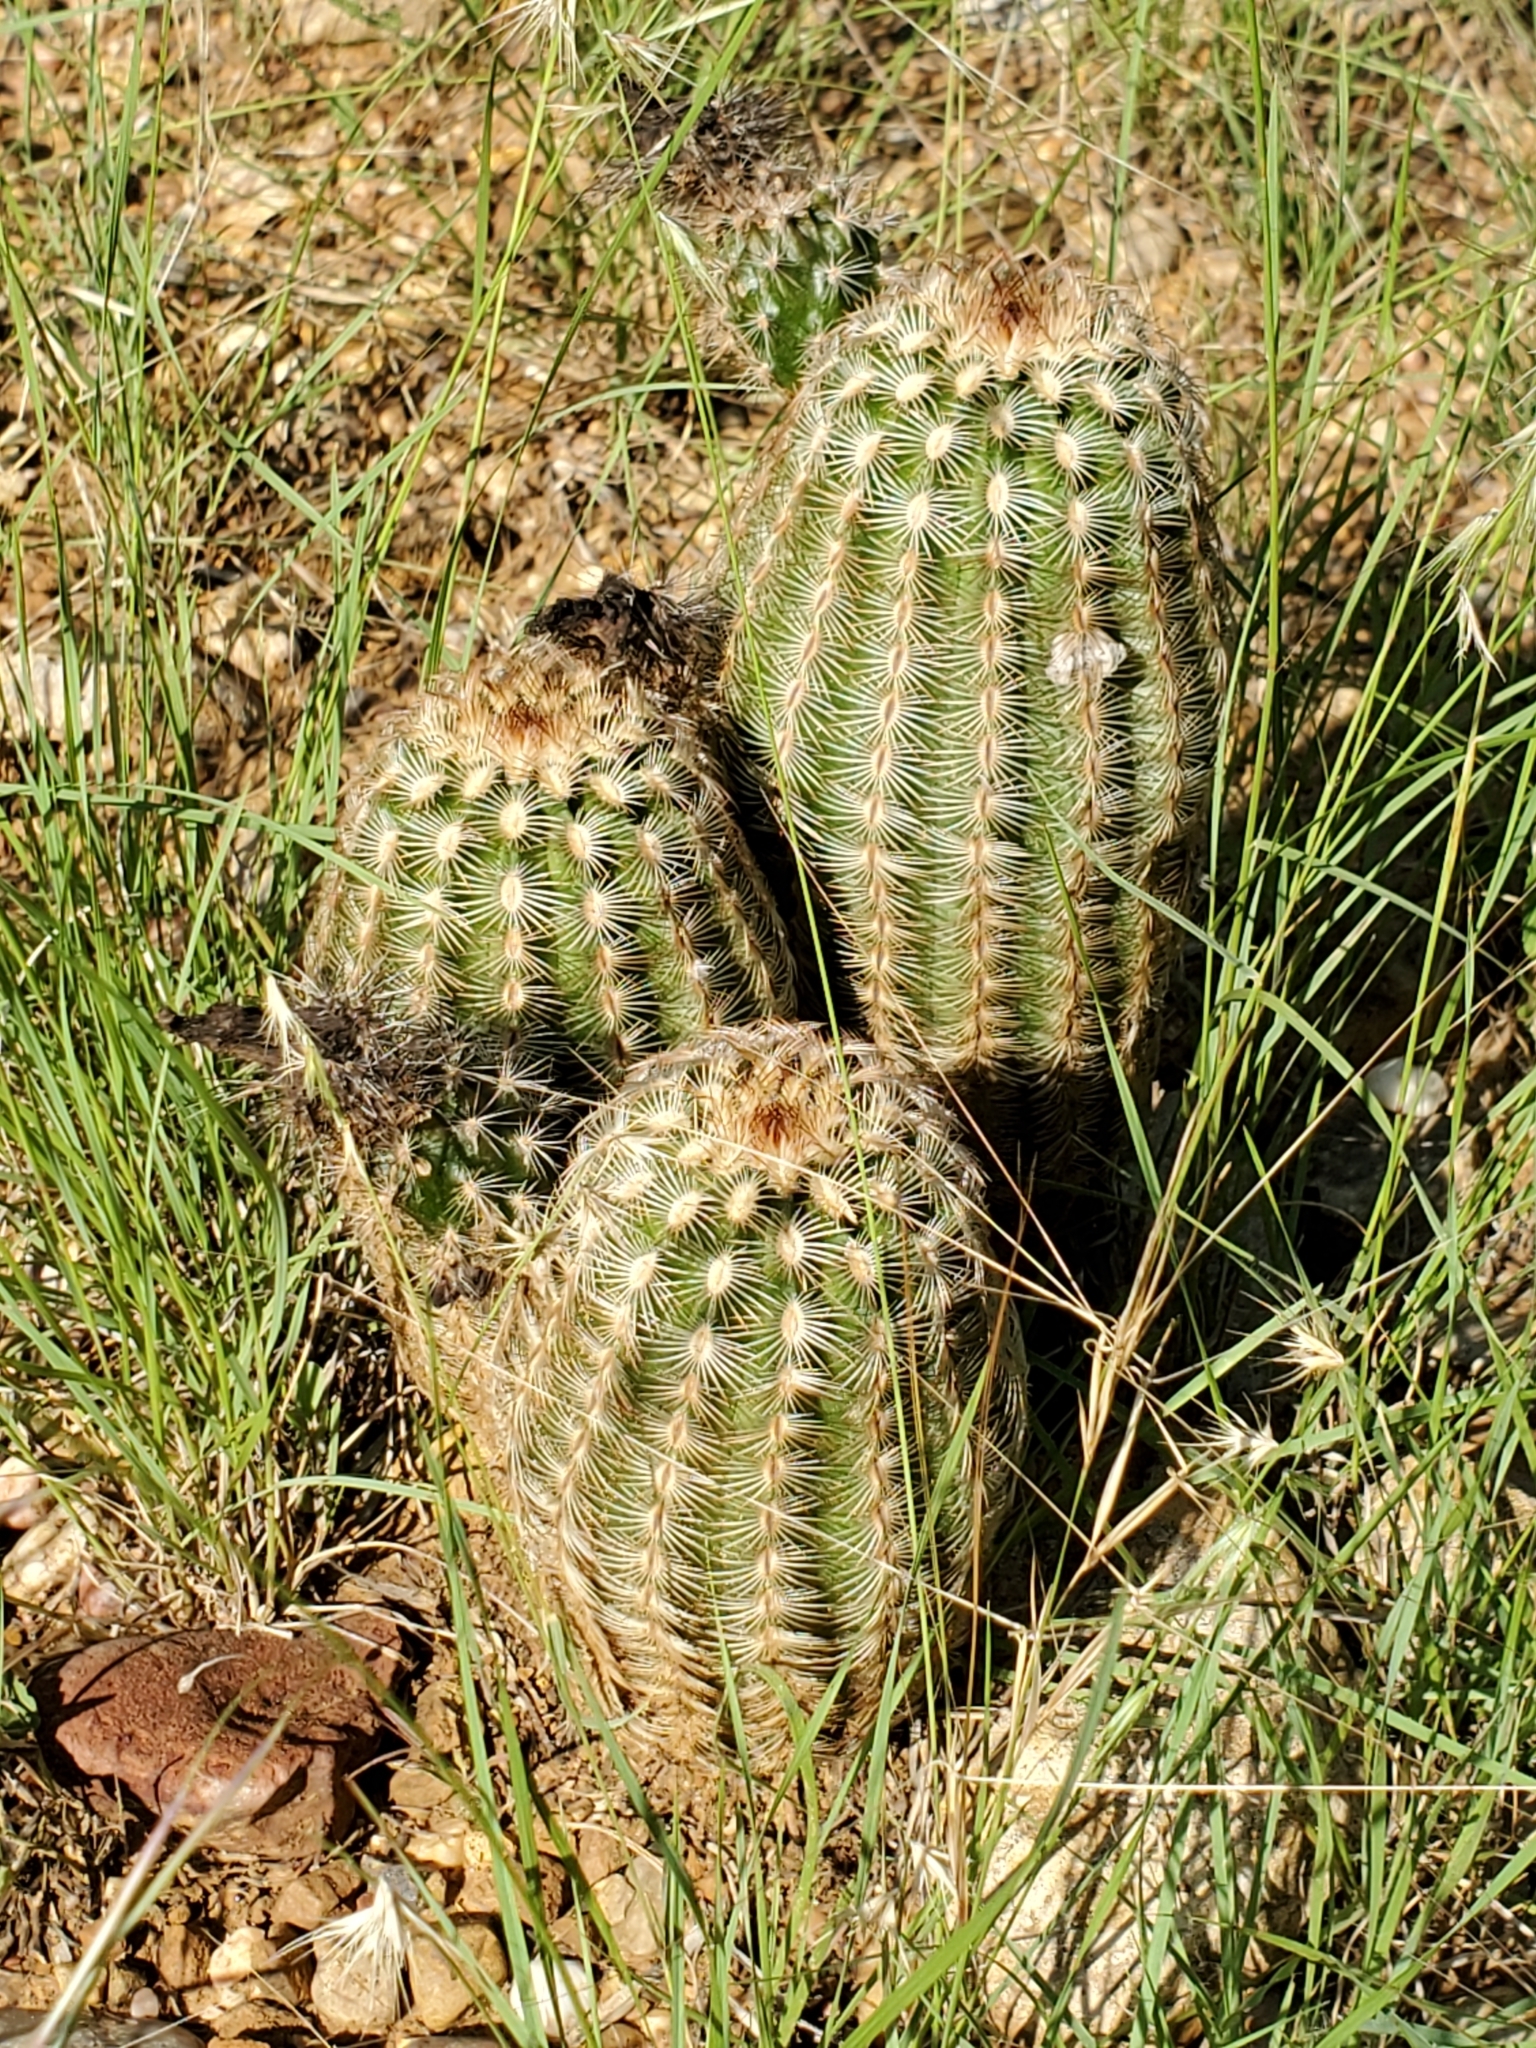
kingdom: Plantae
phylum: Tracheophyta
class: Magnoliopsida
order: Caryophyllales
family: Cactaceae
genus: Echinocereus
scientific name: Echinocereus reichenbachii
